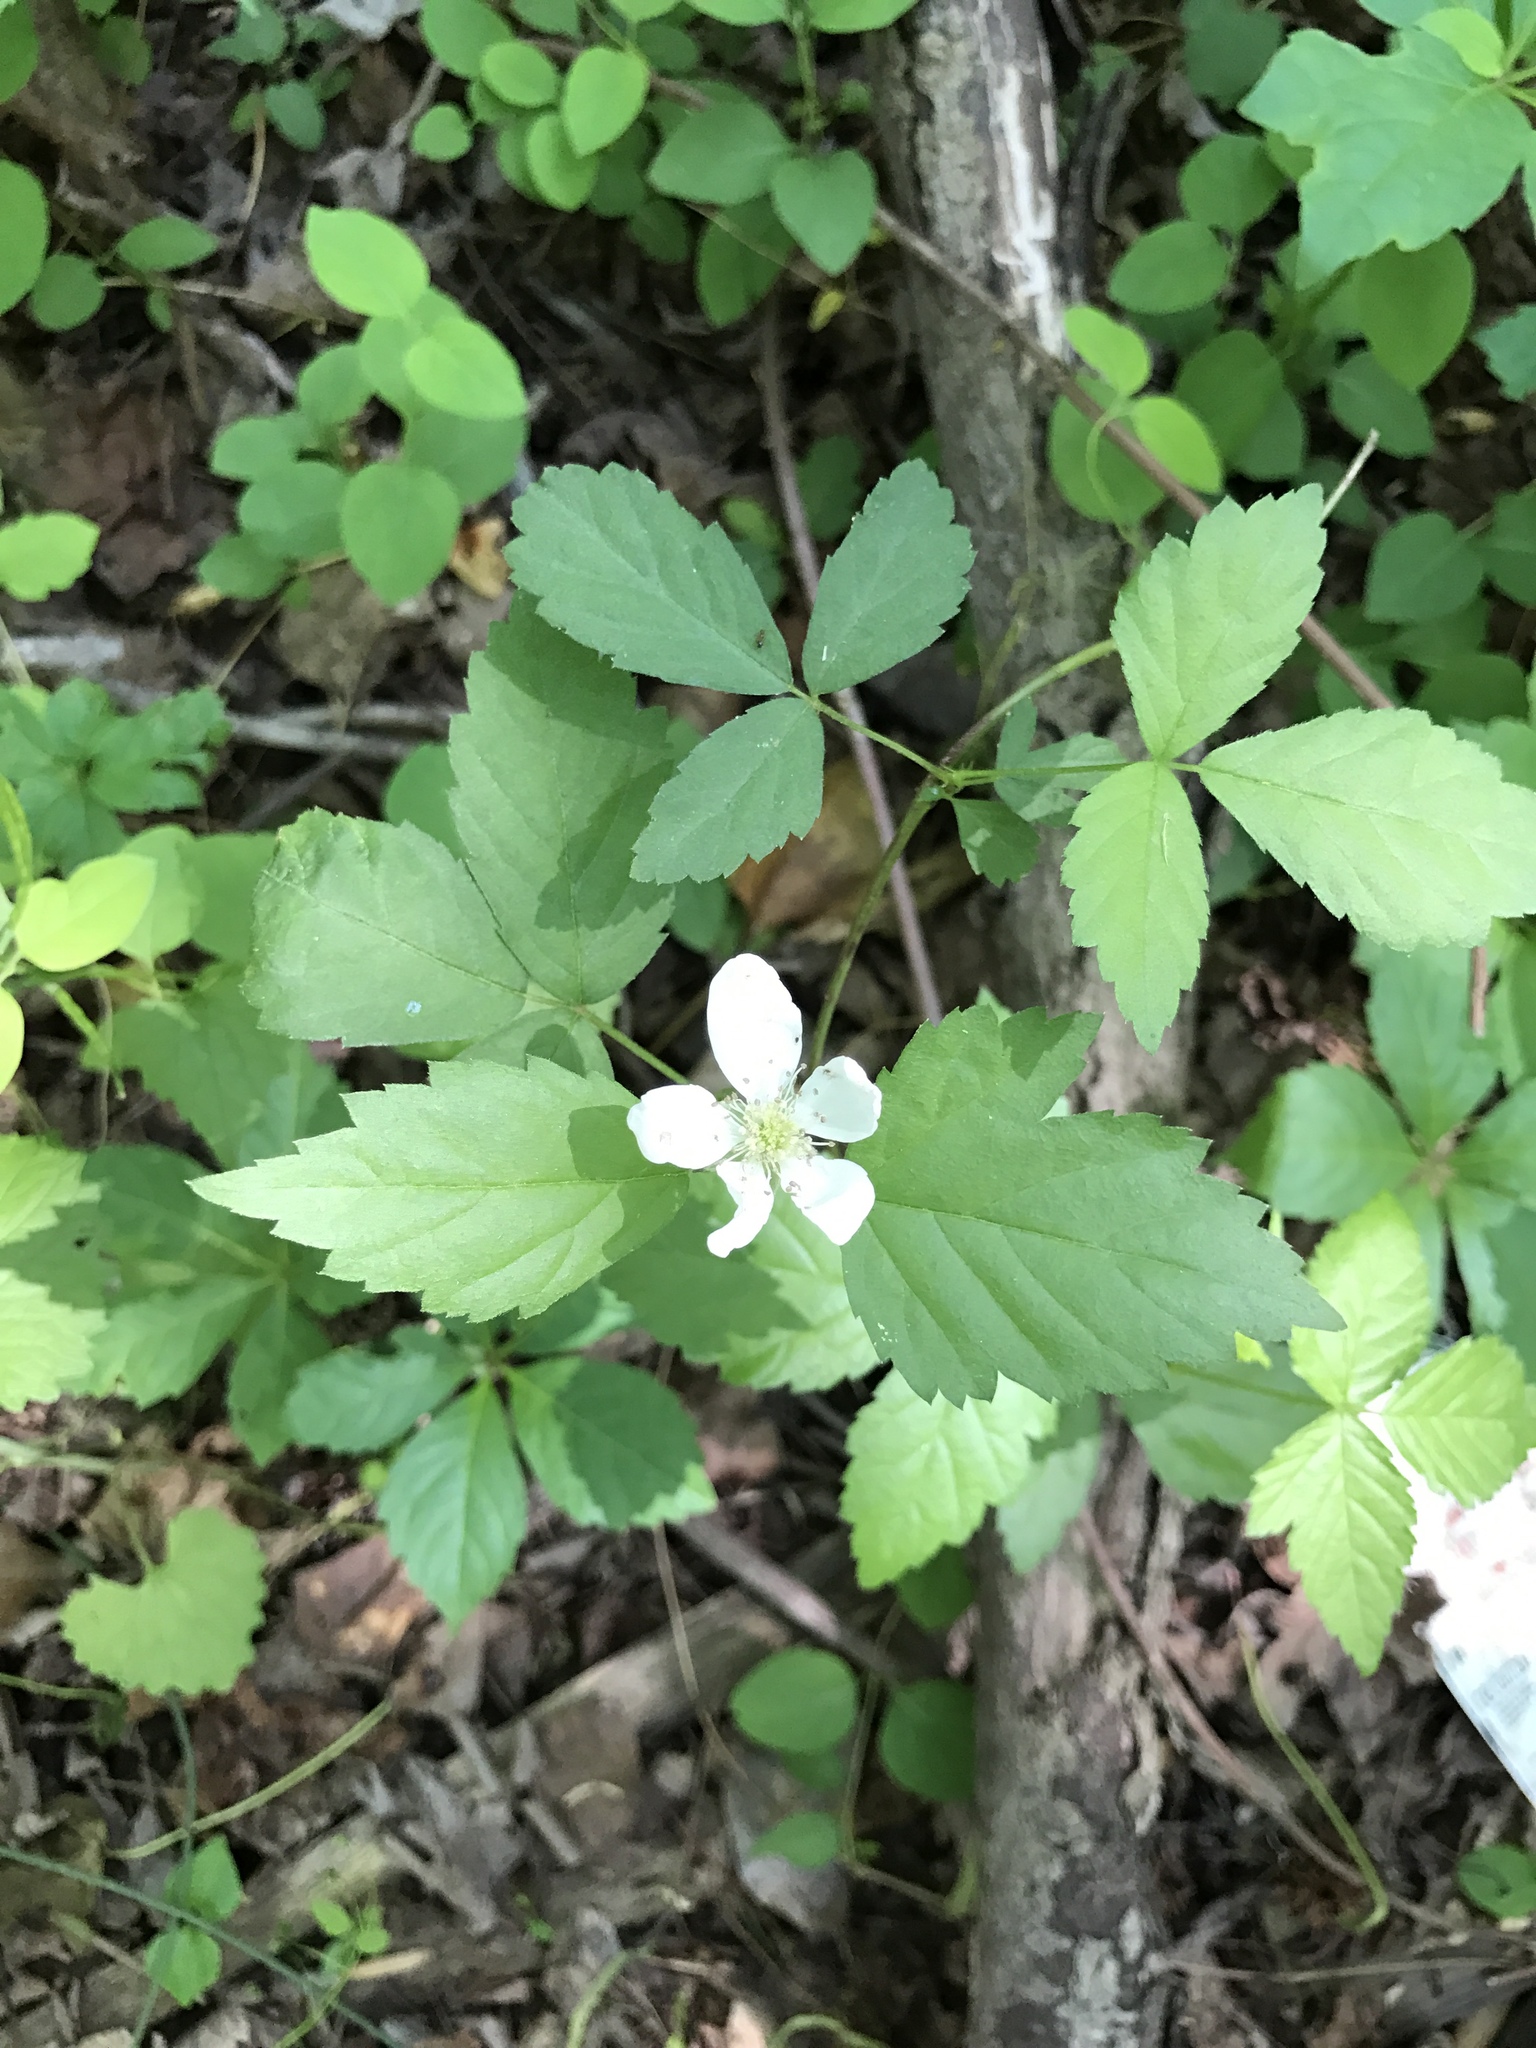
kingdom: Plantae
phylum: Tracheophyta
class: Magnoliopsida
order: Rosales
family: Rosaceae
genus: Rubus
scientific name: Rubus flagellaris
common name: American dewberry
